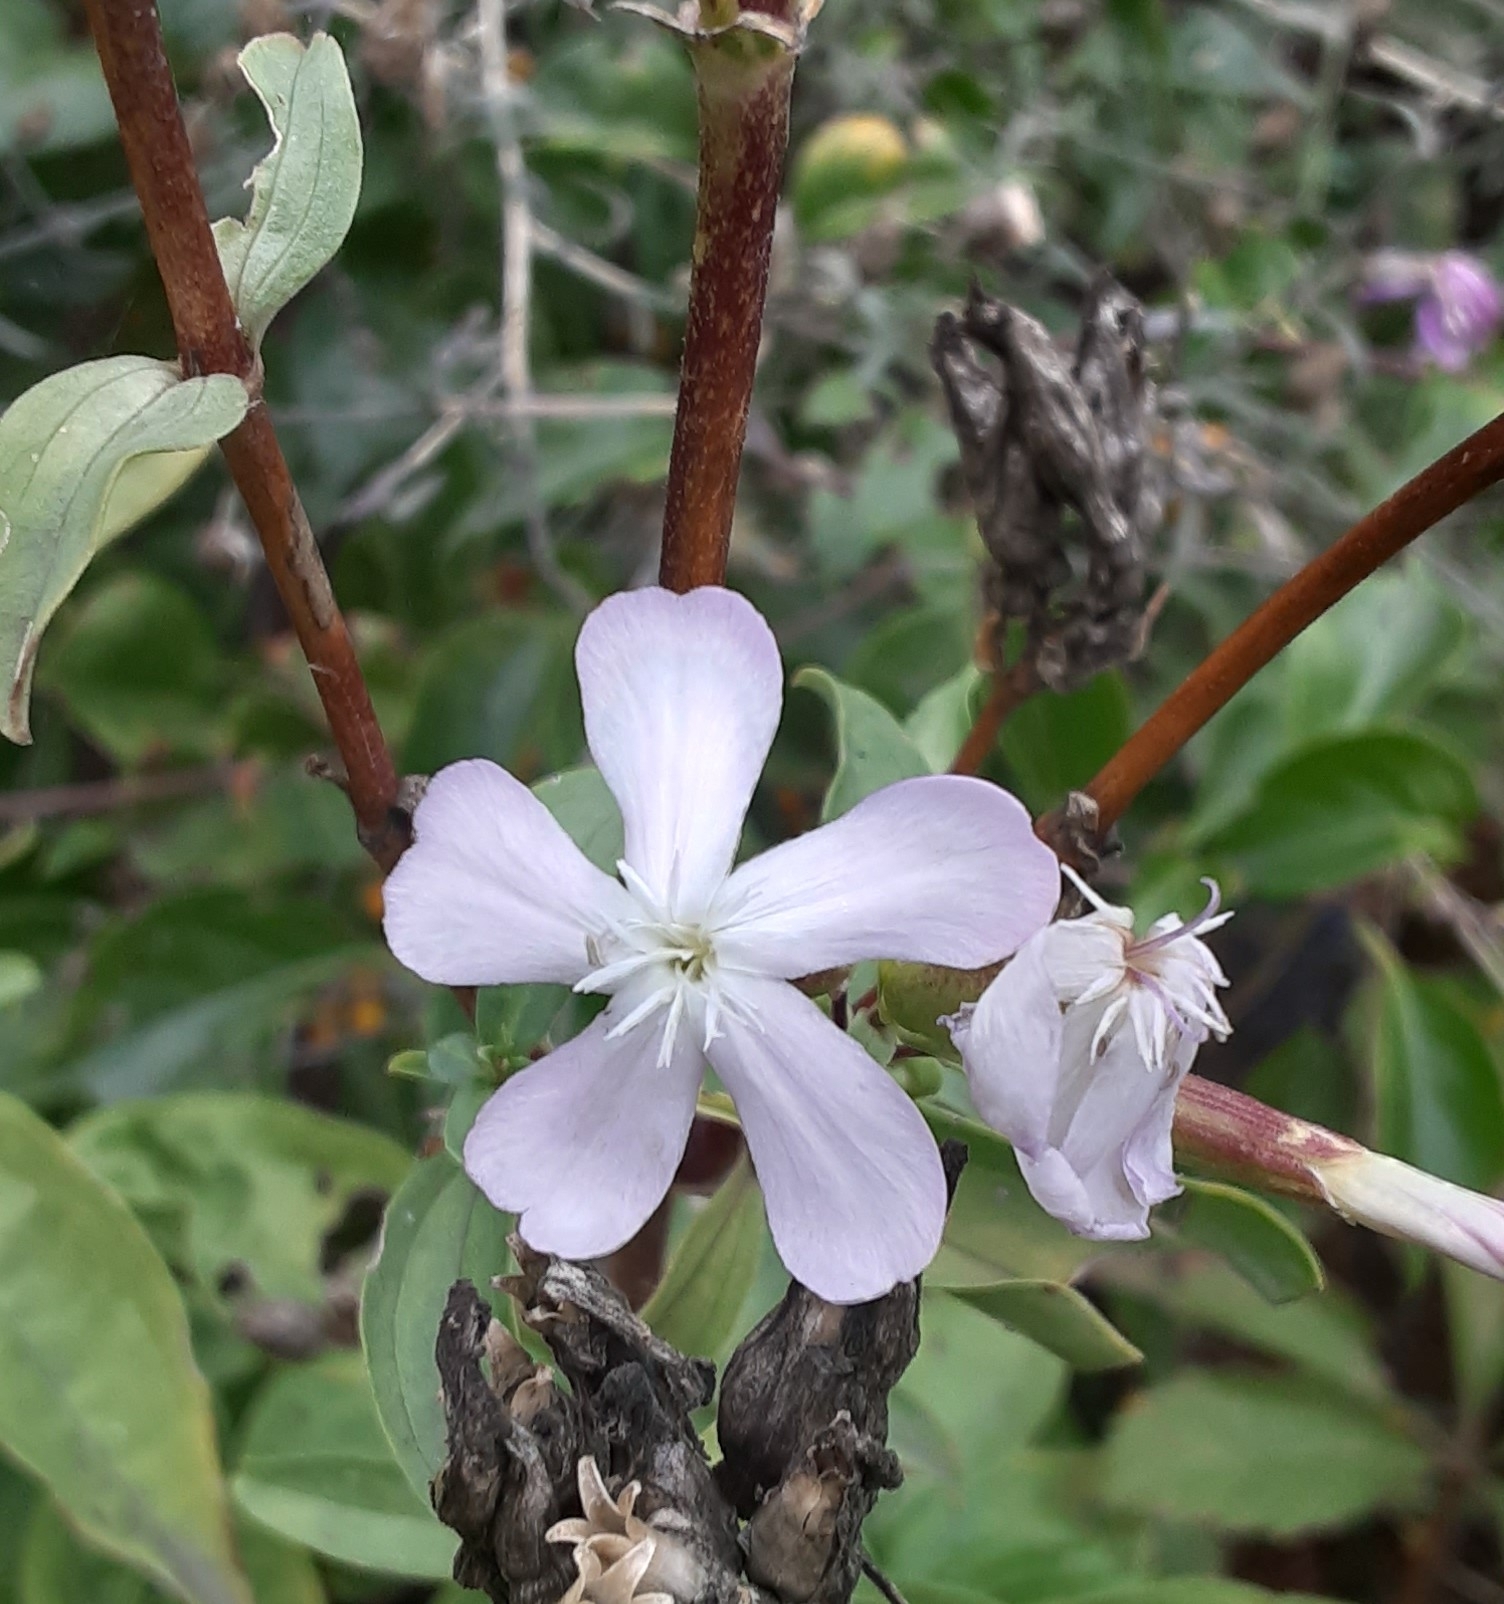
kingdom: Plantae
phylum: Tracheophyta
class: Magnoliopsida
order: Caryophyllales
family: Caryophyllaceae
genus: Saponaria
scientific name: Saponaria officinalis
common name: Soapwort
